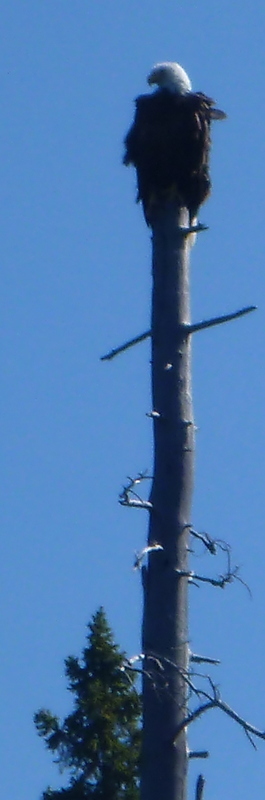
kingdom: Animalia
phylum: Chordata
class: Aves
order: Accipitriformes
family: Accipitridae
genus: Haliaeetus
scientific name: Haliaeetus leucocephalus
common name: Bald eagle
